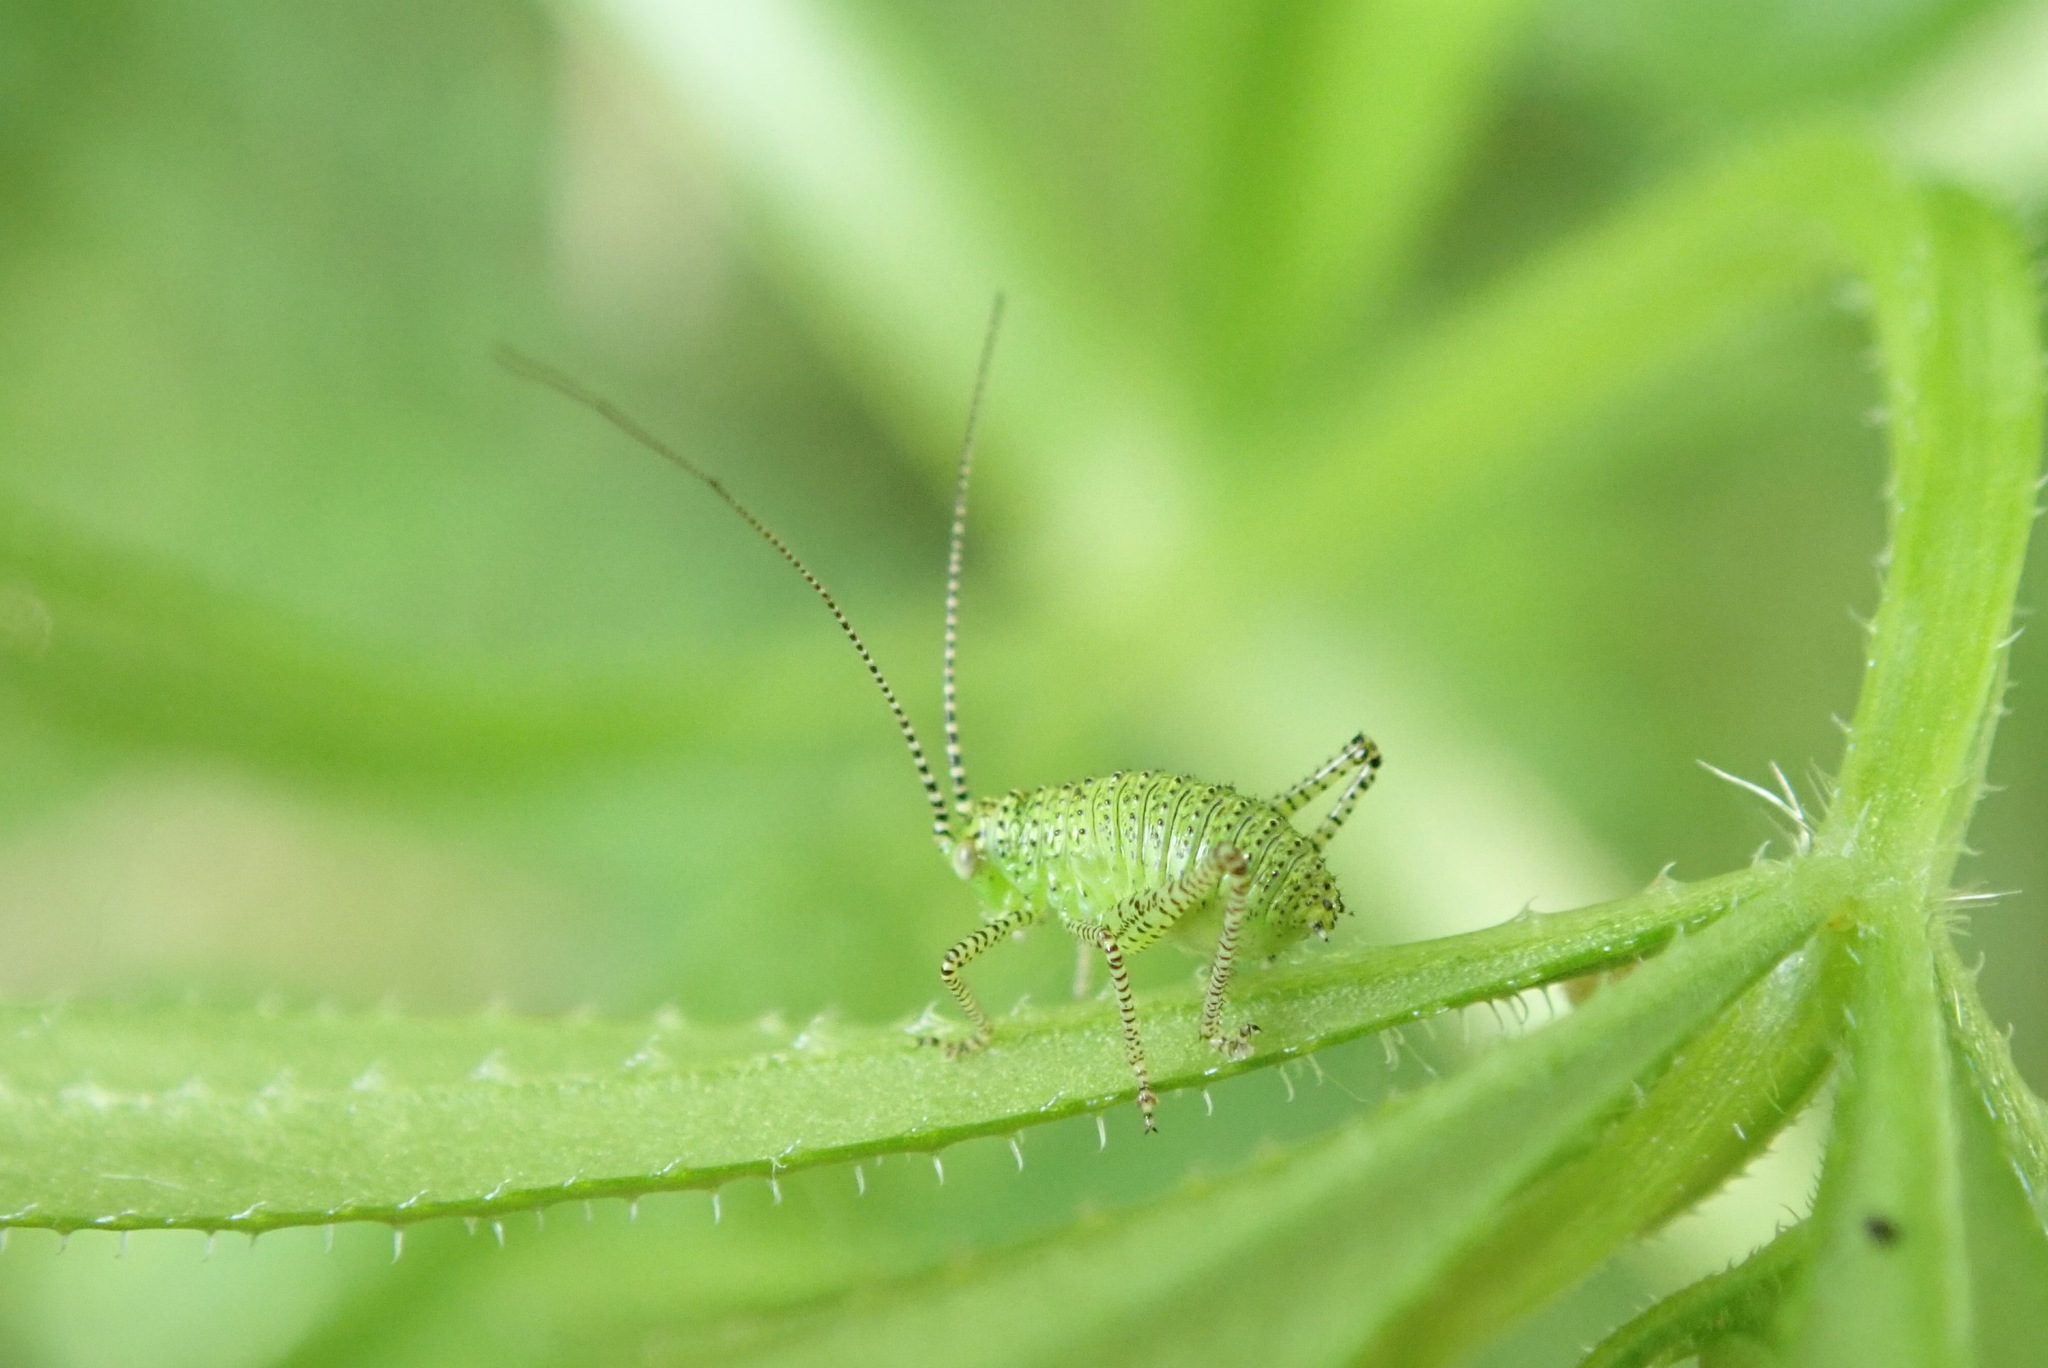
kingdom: Animalia
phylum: Arthropoda
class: Insecta
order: Orthoptera
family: Tettigoniidae
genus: Leptophyes
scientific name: Leptophyes punctatissima
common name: Speckled bush-cricket
